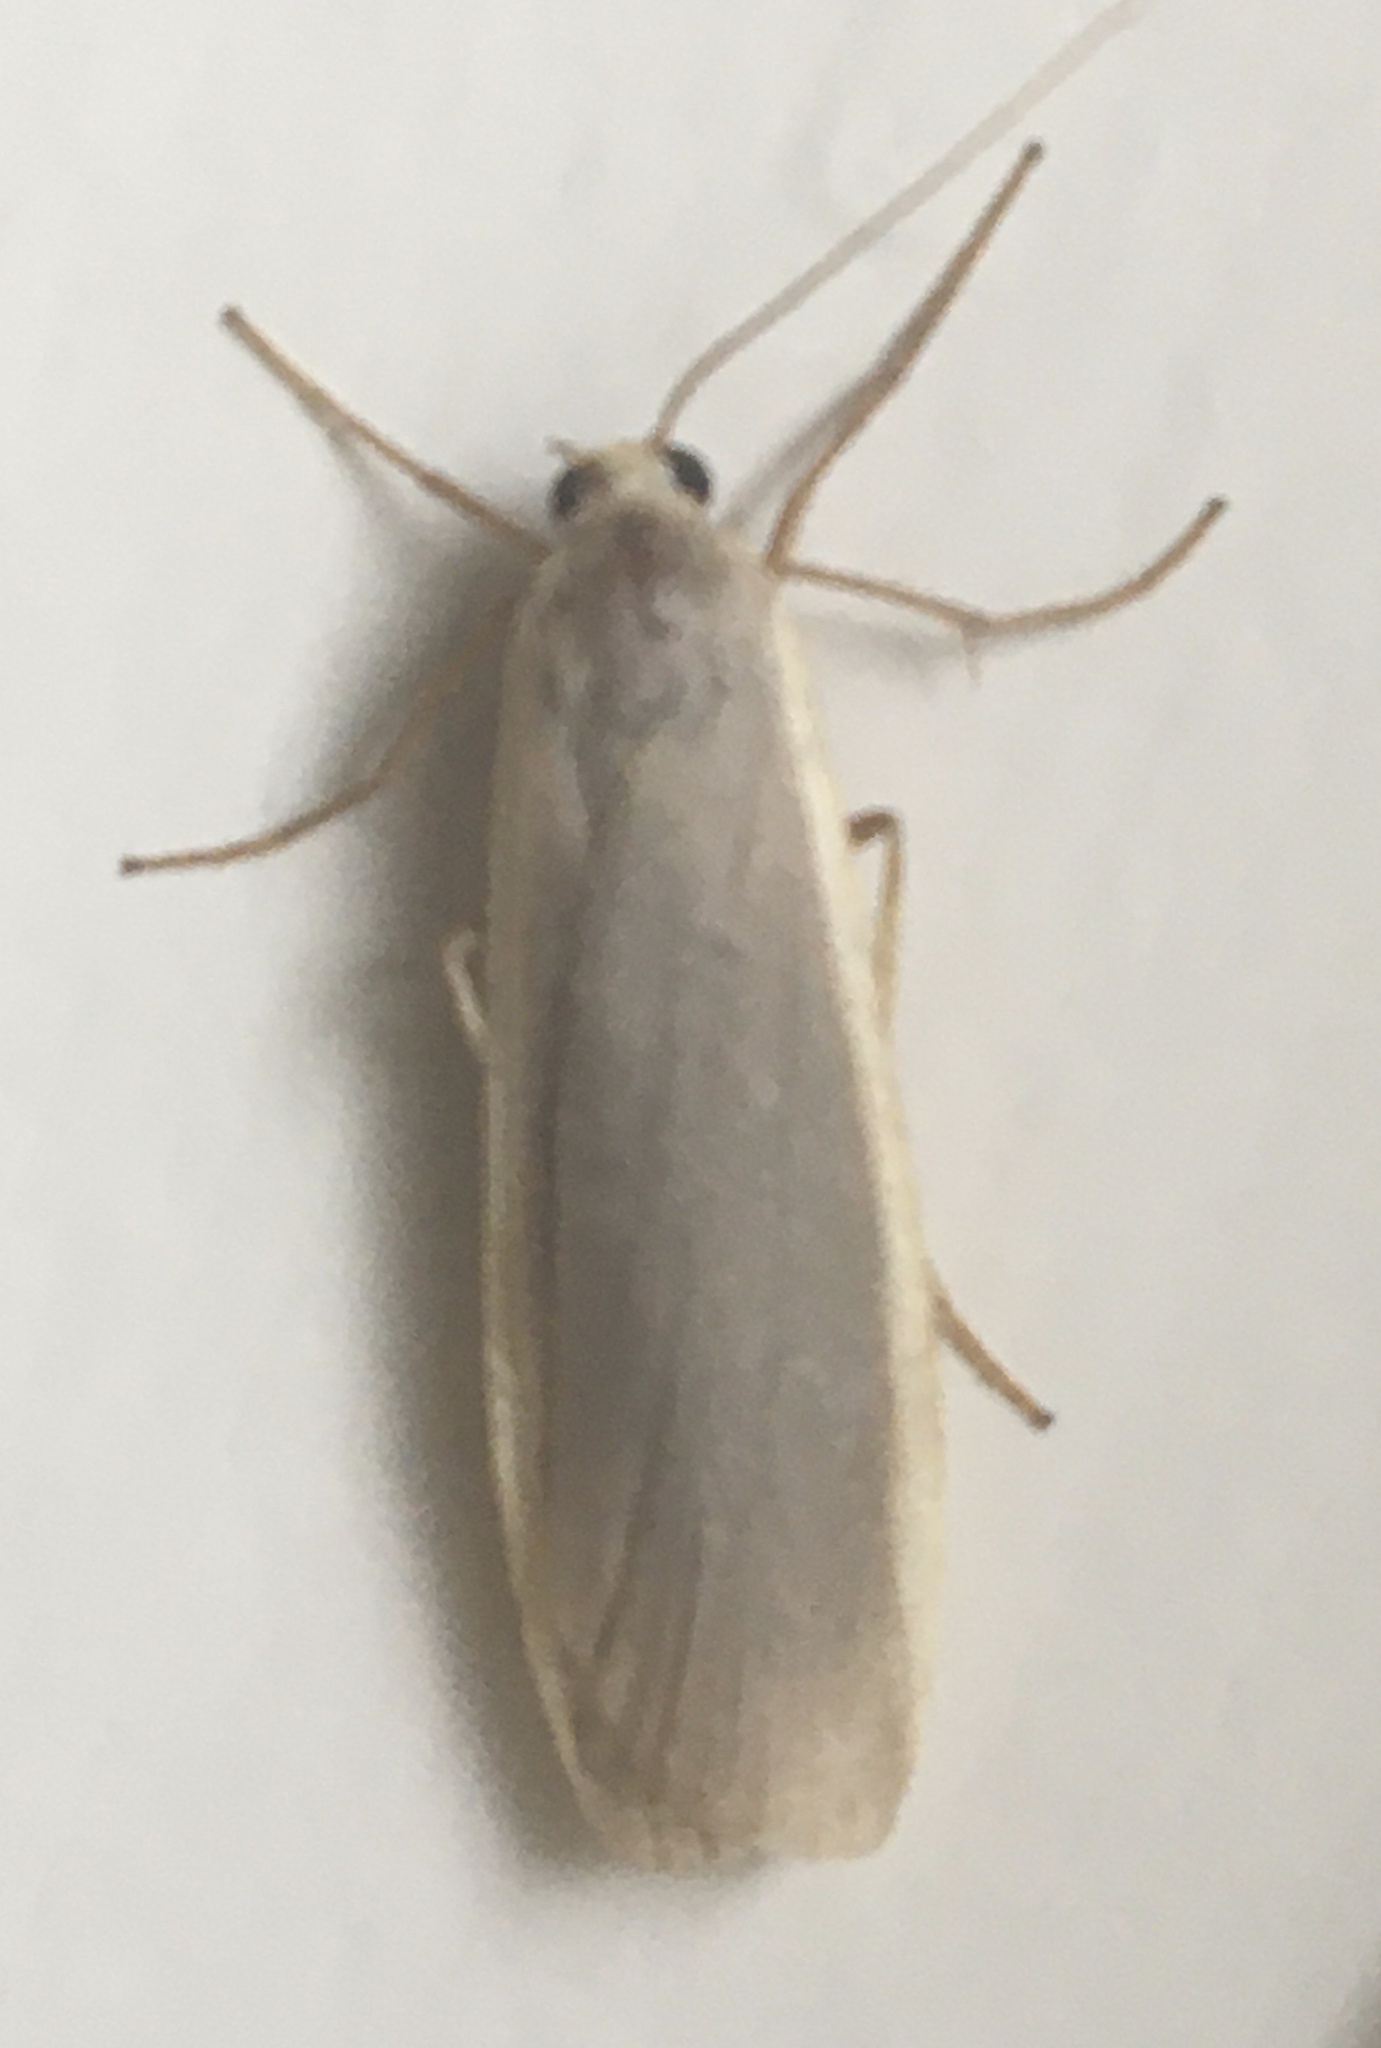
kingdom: Animalia
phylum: Arthropoda
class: Insecta
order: Lepidoptera
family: Erebidae
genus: Nyea
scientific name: Nyea lurideola
